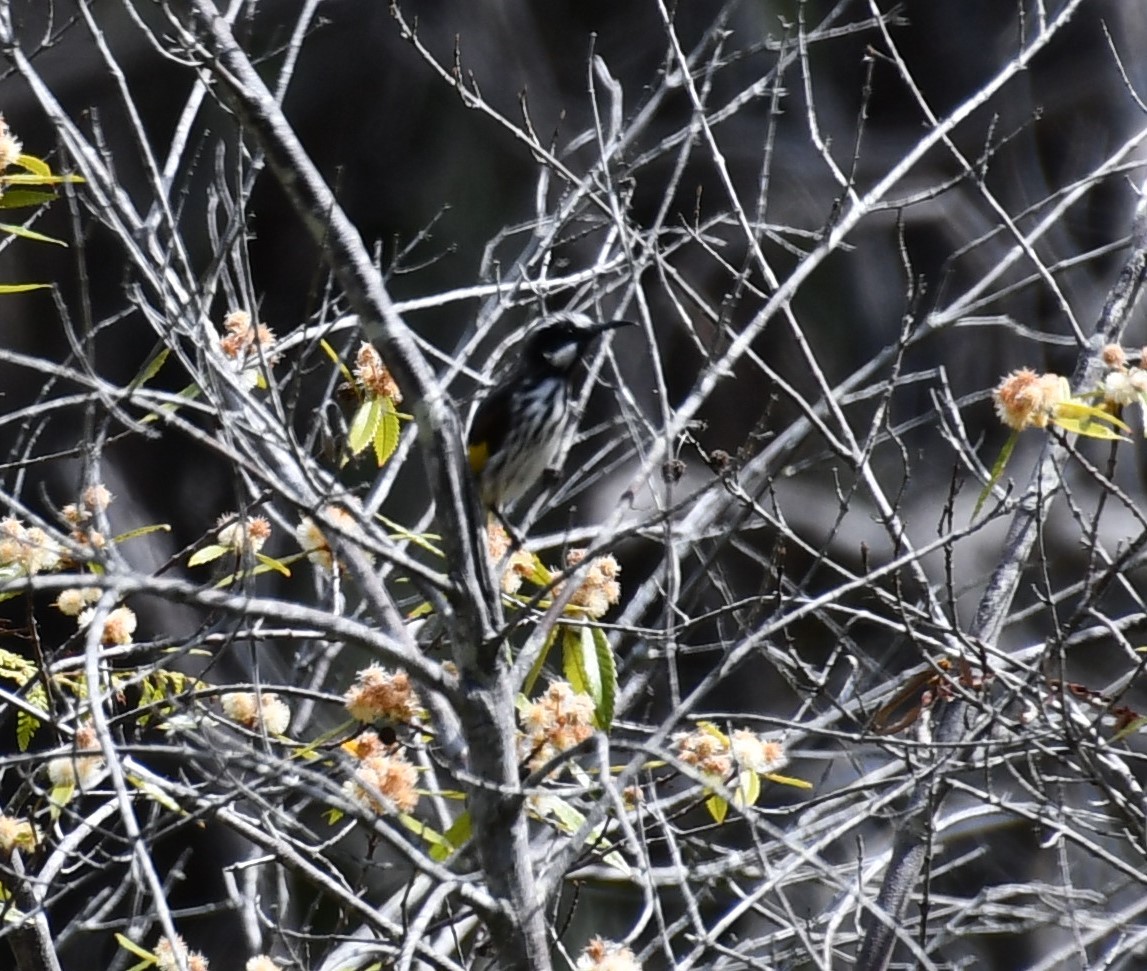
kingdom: Animalia
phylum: Chordata
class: Aves
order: Passeriformes
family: Meliphagidae
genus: Phylidonyris
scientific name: Phylidonyris novaehollandiae
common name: New holland honeyeater
